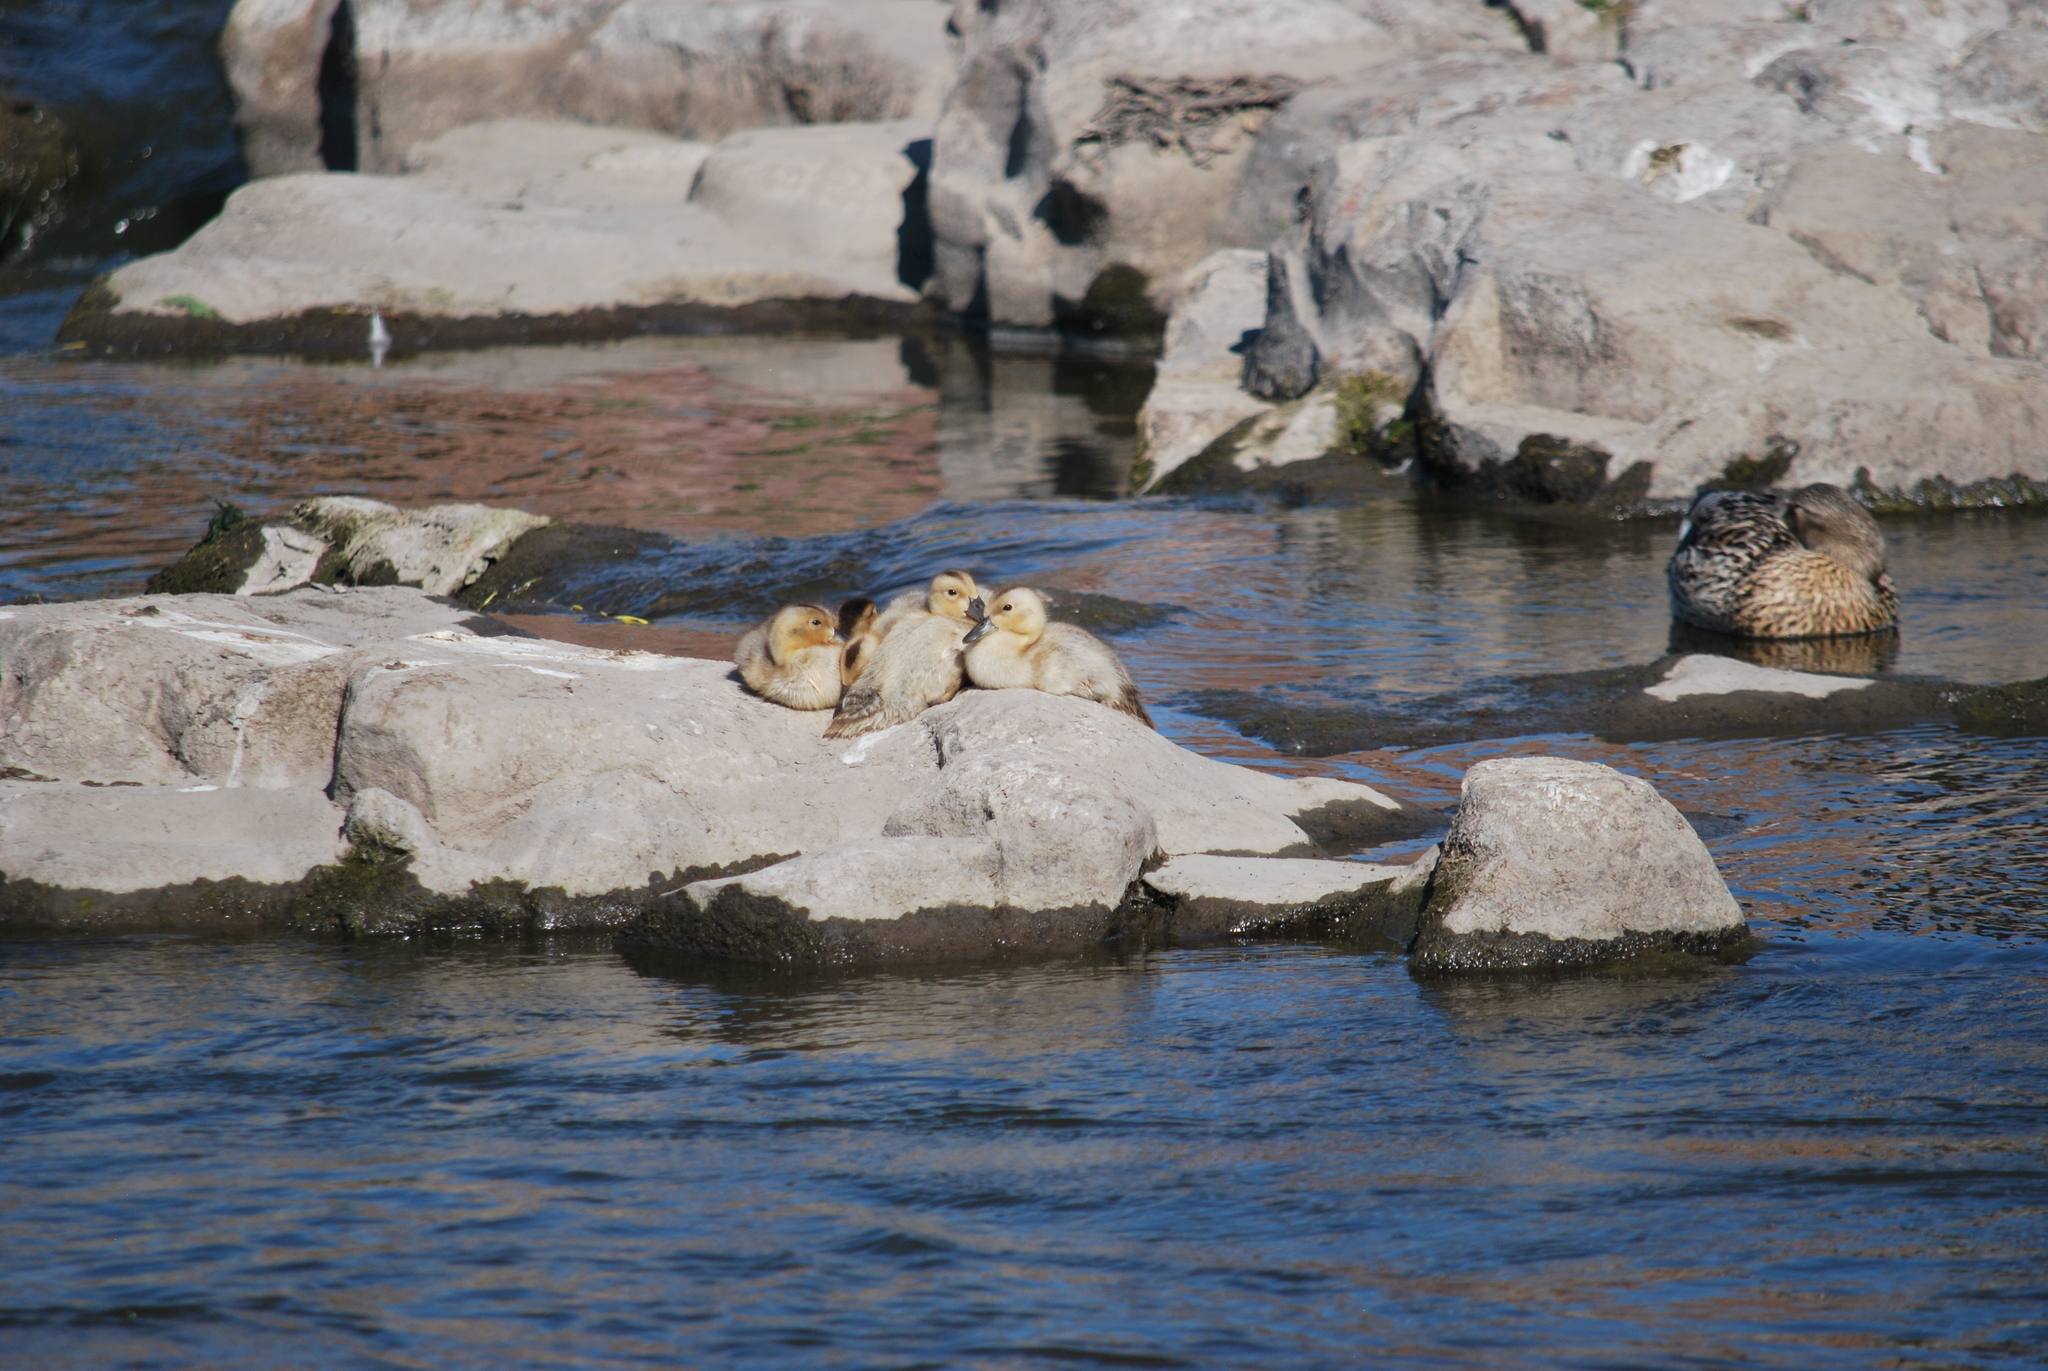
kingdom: Animalia
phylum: Chordata
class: Aves
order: Anseriformes
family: Anatidae
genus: Anas
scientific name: Anas platyrhynchos
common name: Mallard
